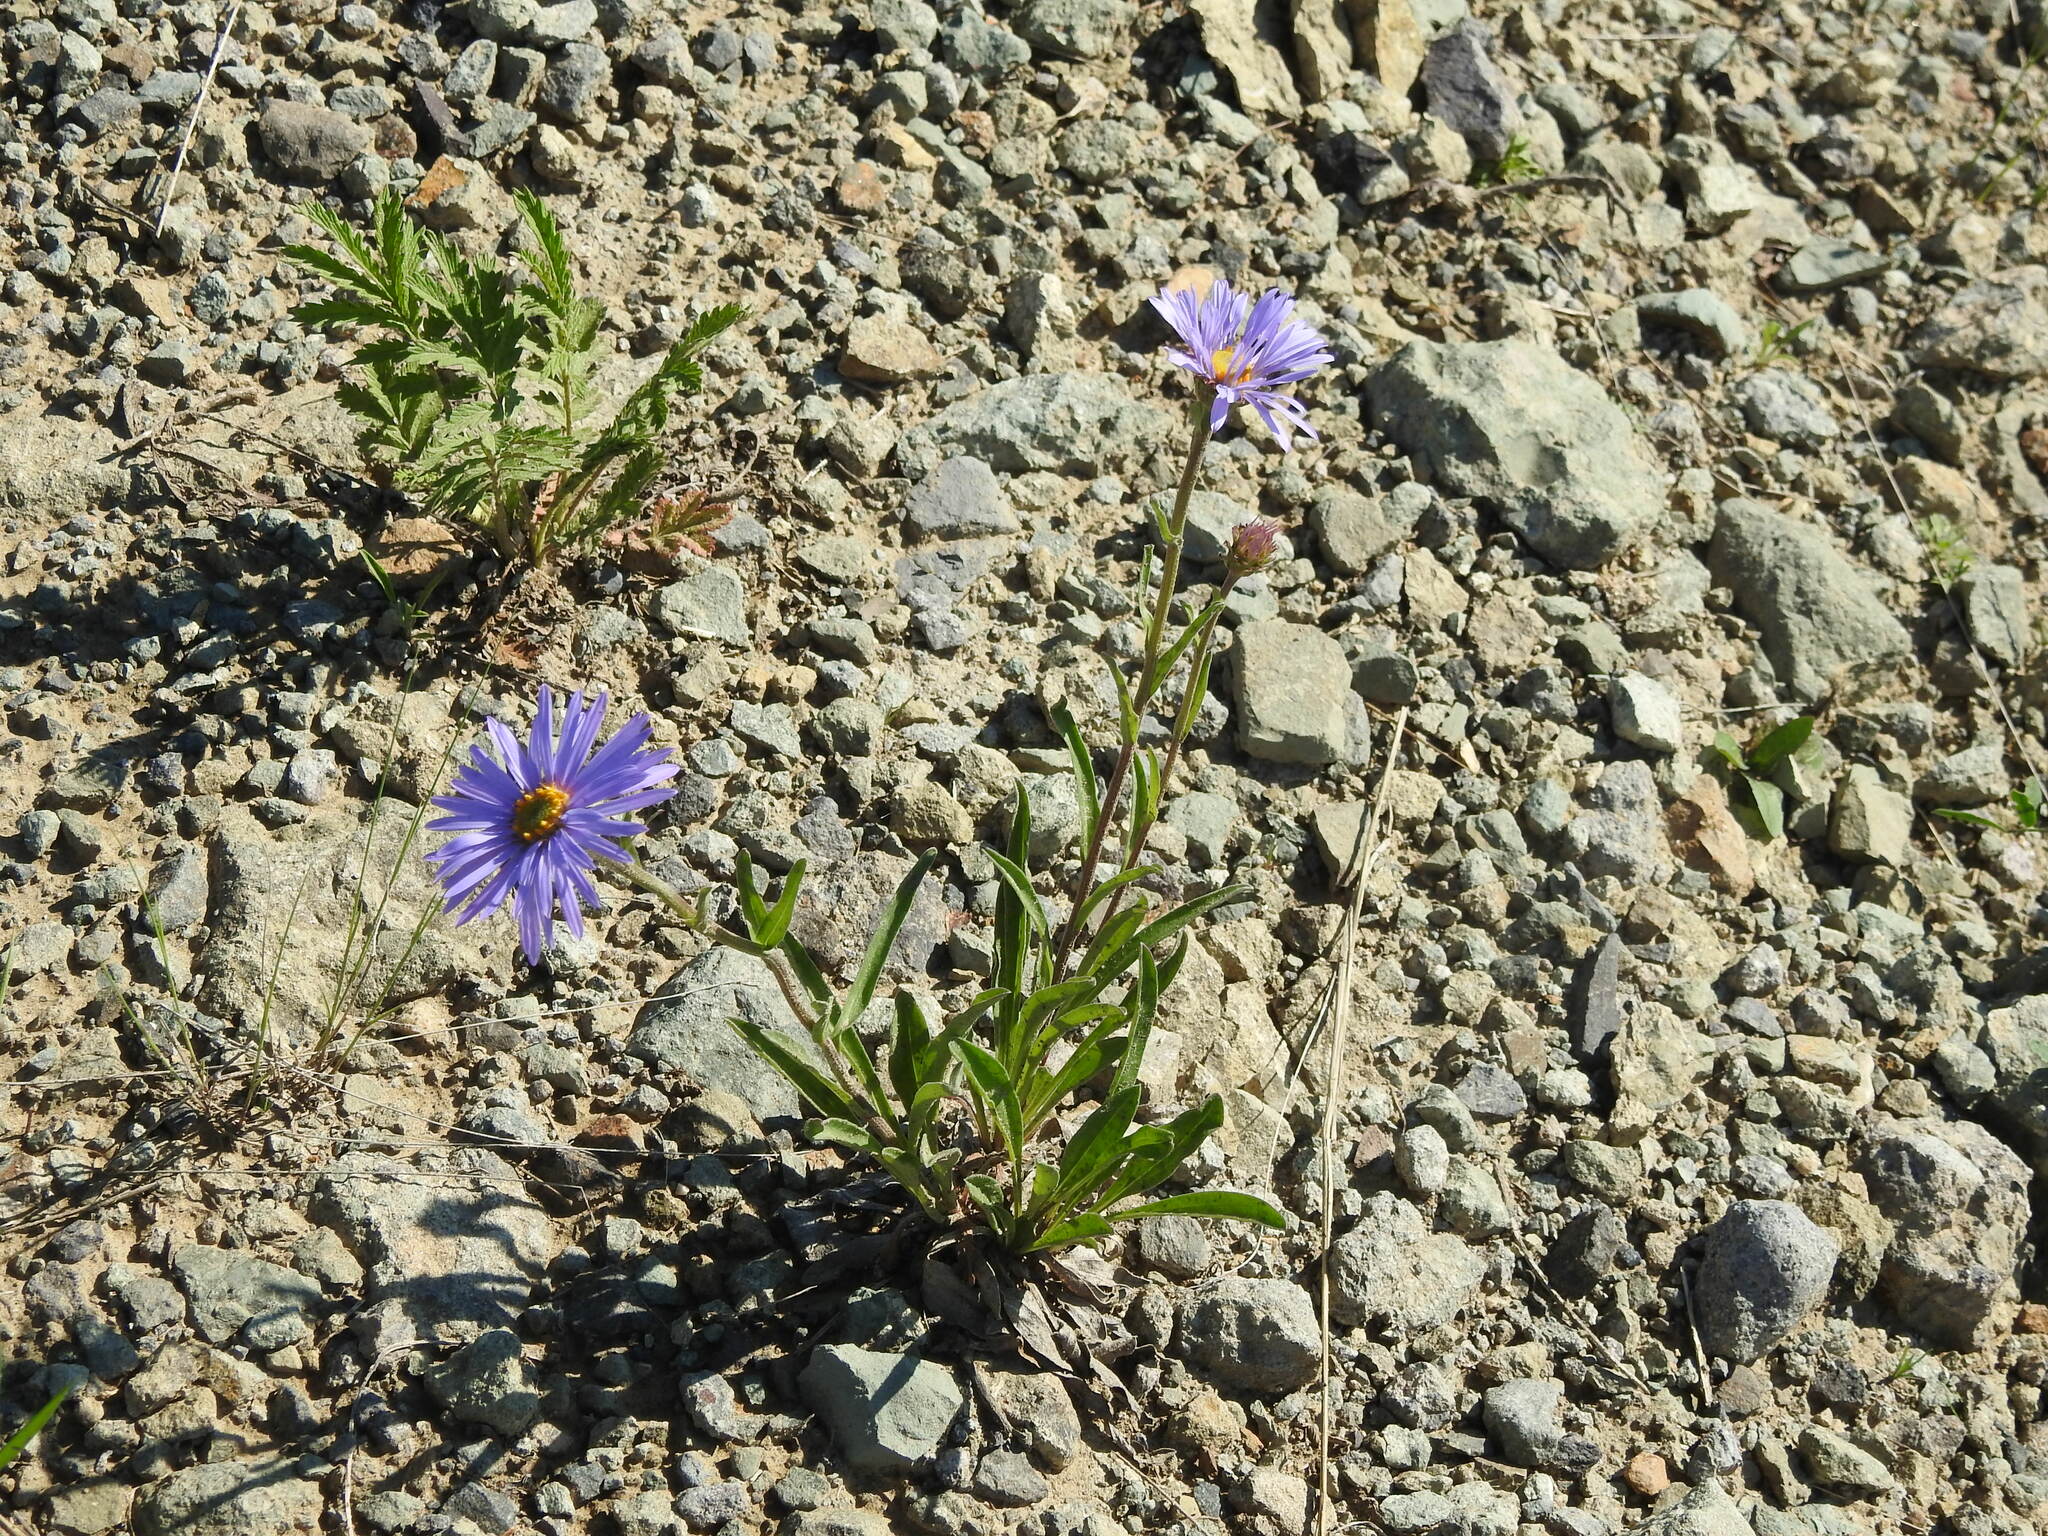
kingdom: Plantae
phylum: Tracheophyta
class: Magnoliopsida
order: Asterales
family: Asteraceae
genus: Aster
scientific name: Aster alpinus
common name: Alpine aster
